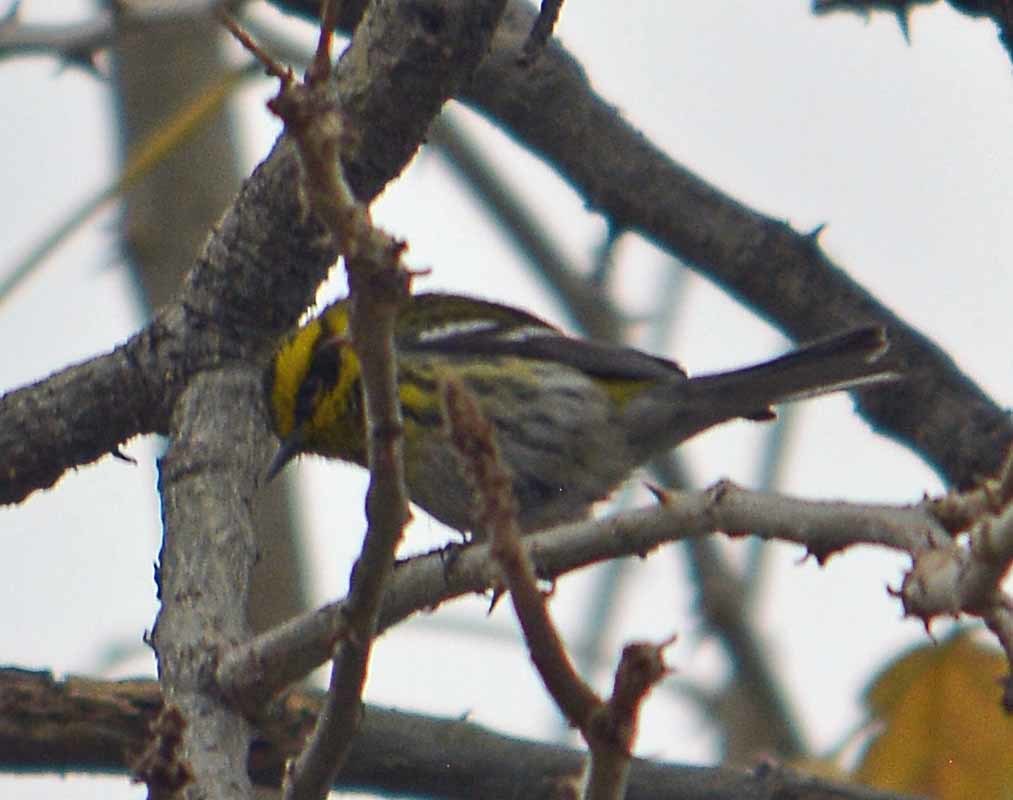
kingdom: Animalia
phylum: Chordata
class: Aves
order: Passeriformes
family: Parulidae
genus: Setophaga
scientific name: Setophaga townsendi
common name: Townsend's warbler
